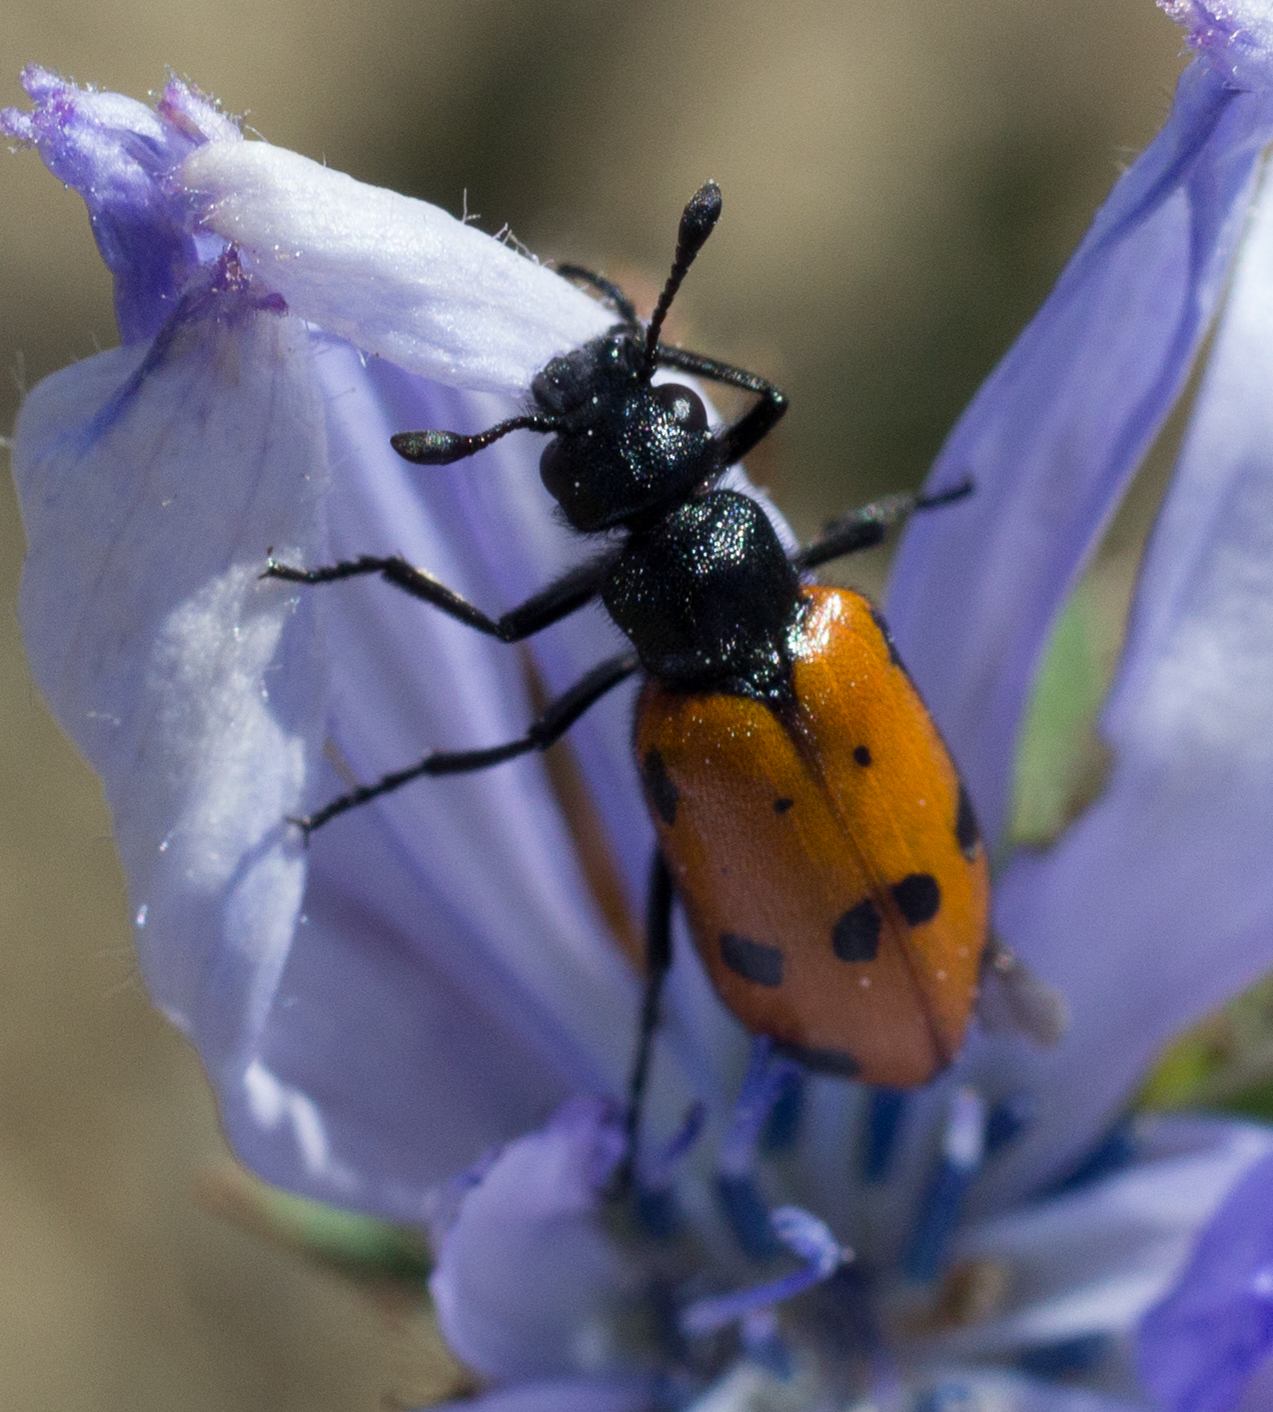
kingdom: Animalia
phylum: Arthropoda
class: Insecta
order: Coleoptera
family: Meloidae
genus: Actenodia
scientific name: Actenodia billbergi
